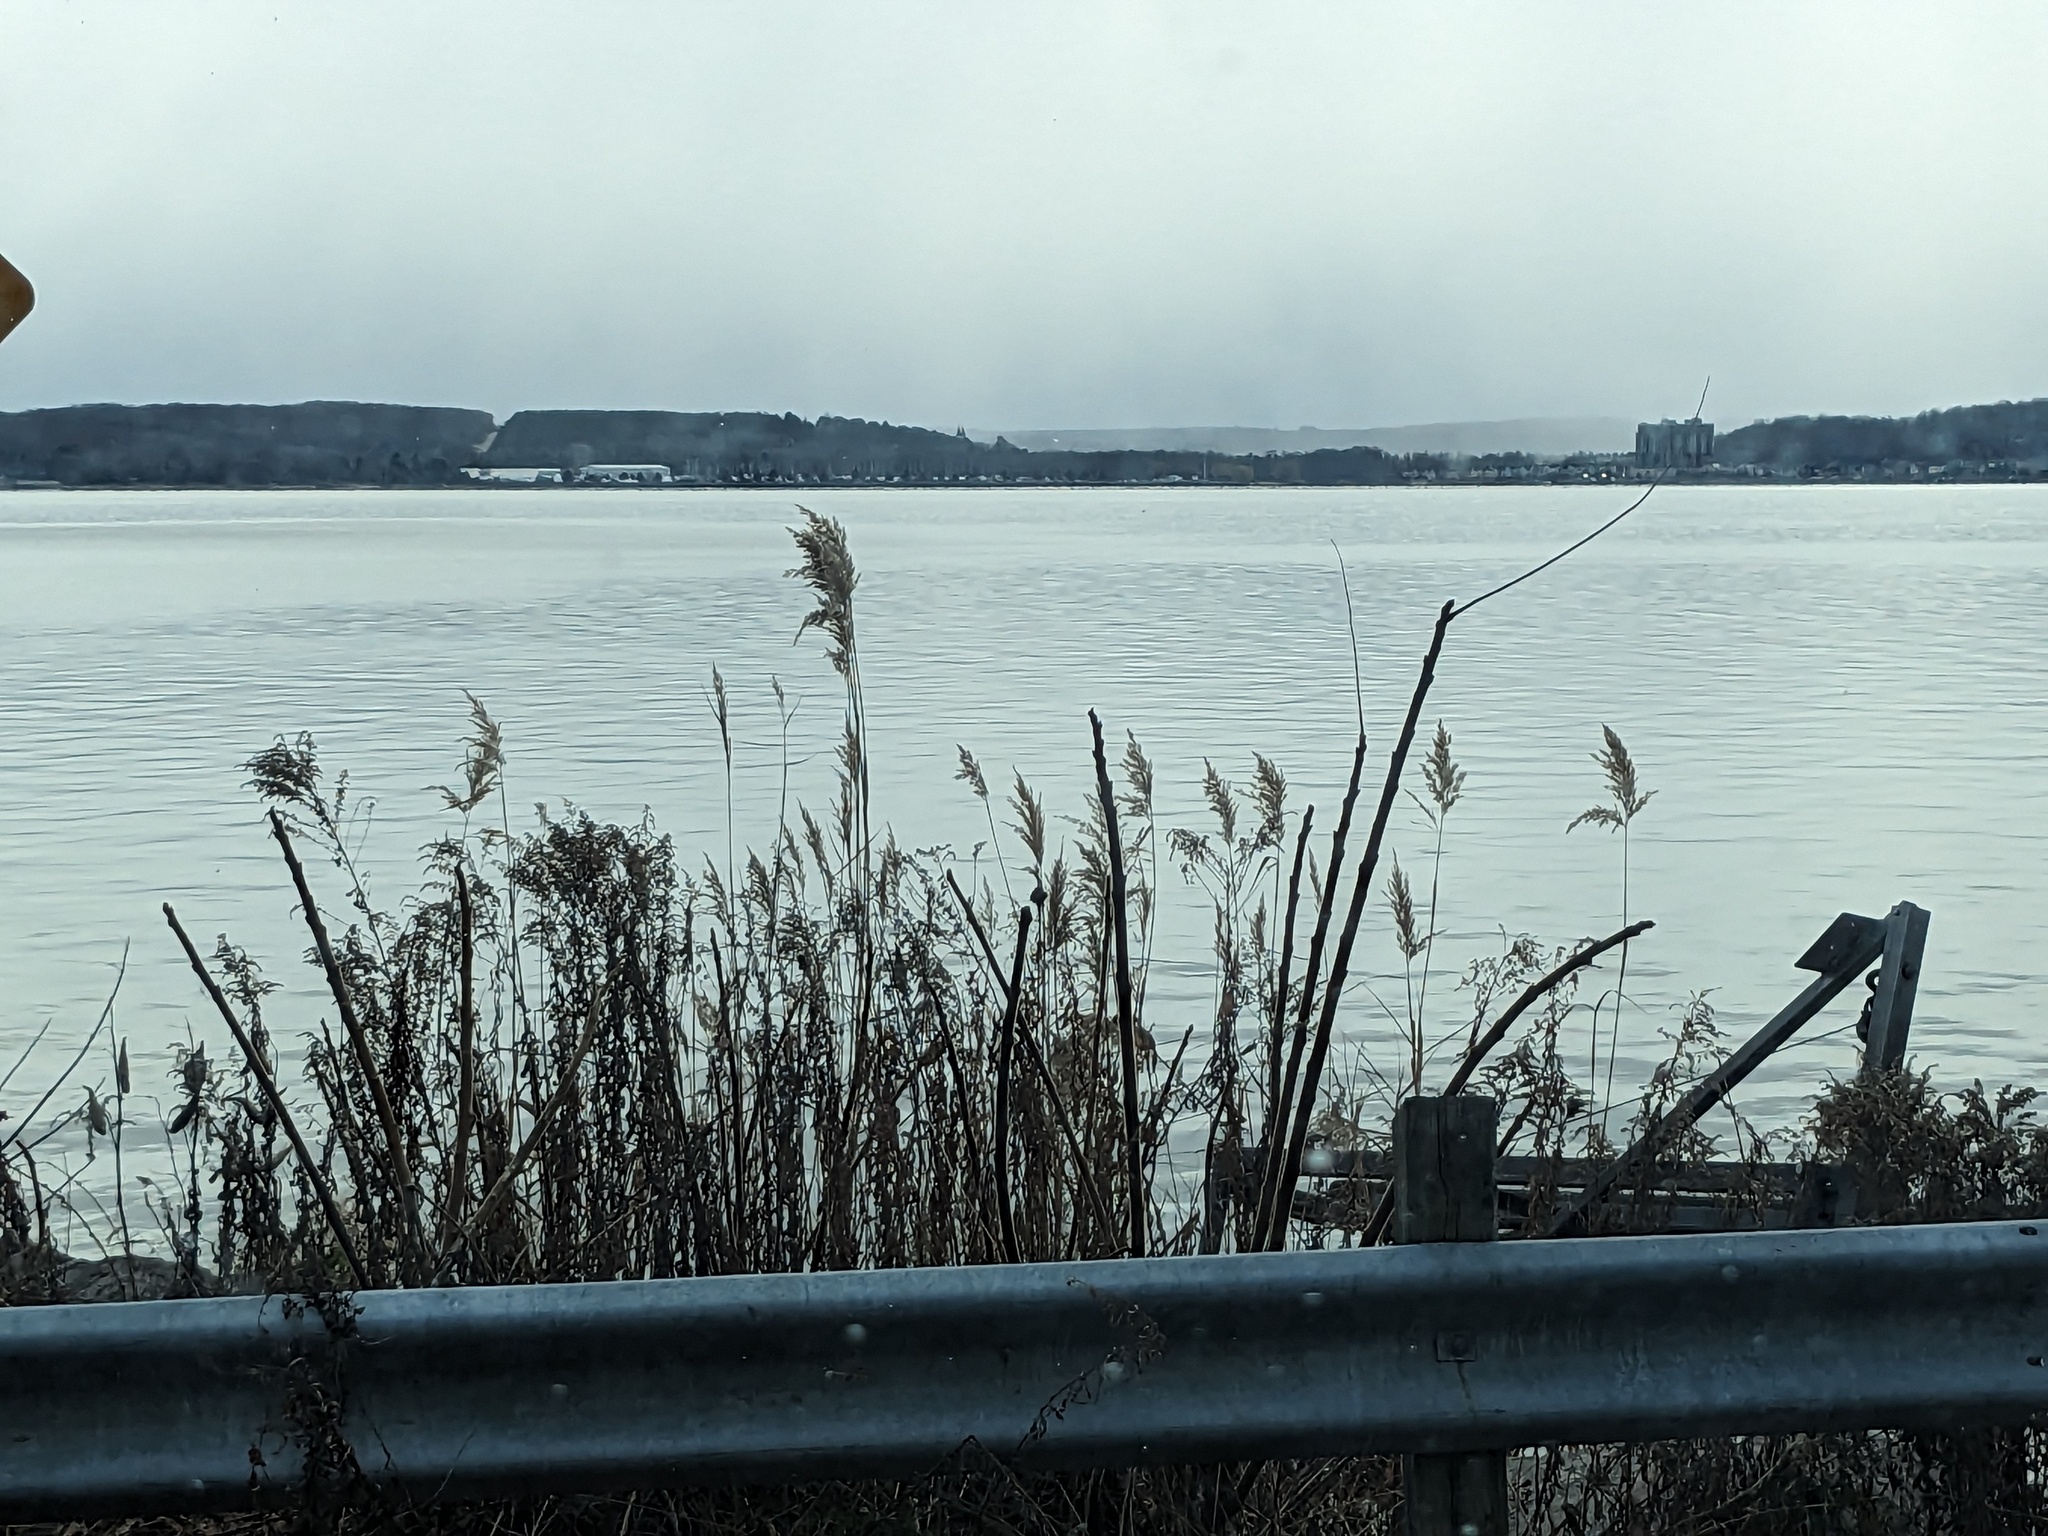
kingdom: Plantae
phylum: Tracheophyta
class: Liliopsida
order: Poales
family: Poaceae
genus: Phragmites
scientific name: Phragmites australis
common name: Common reed
